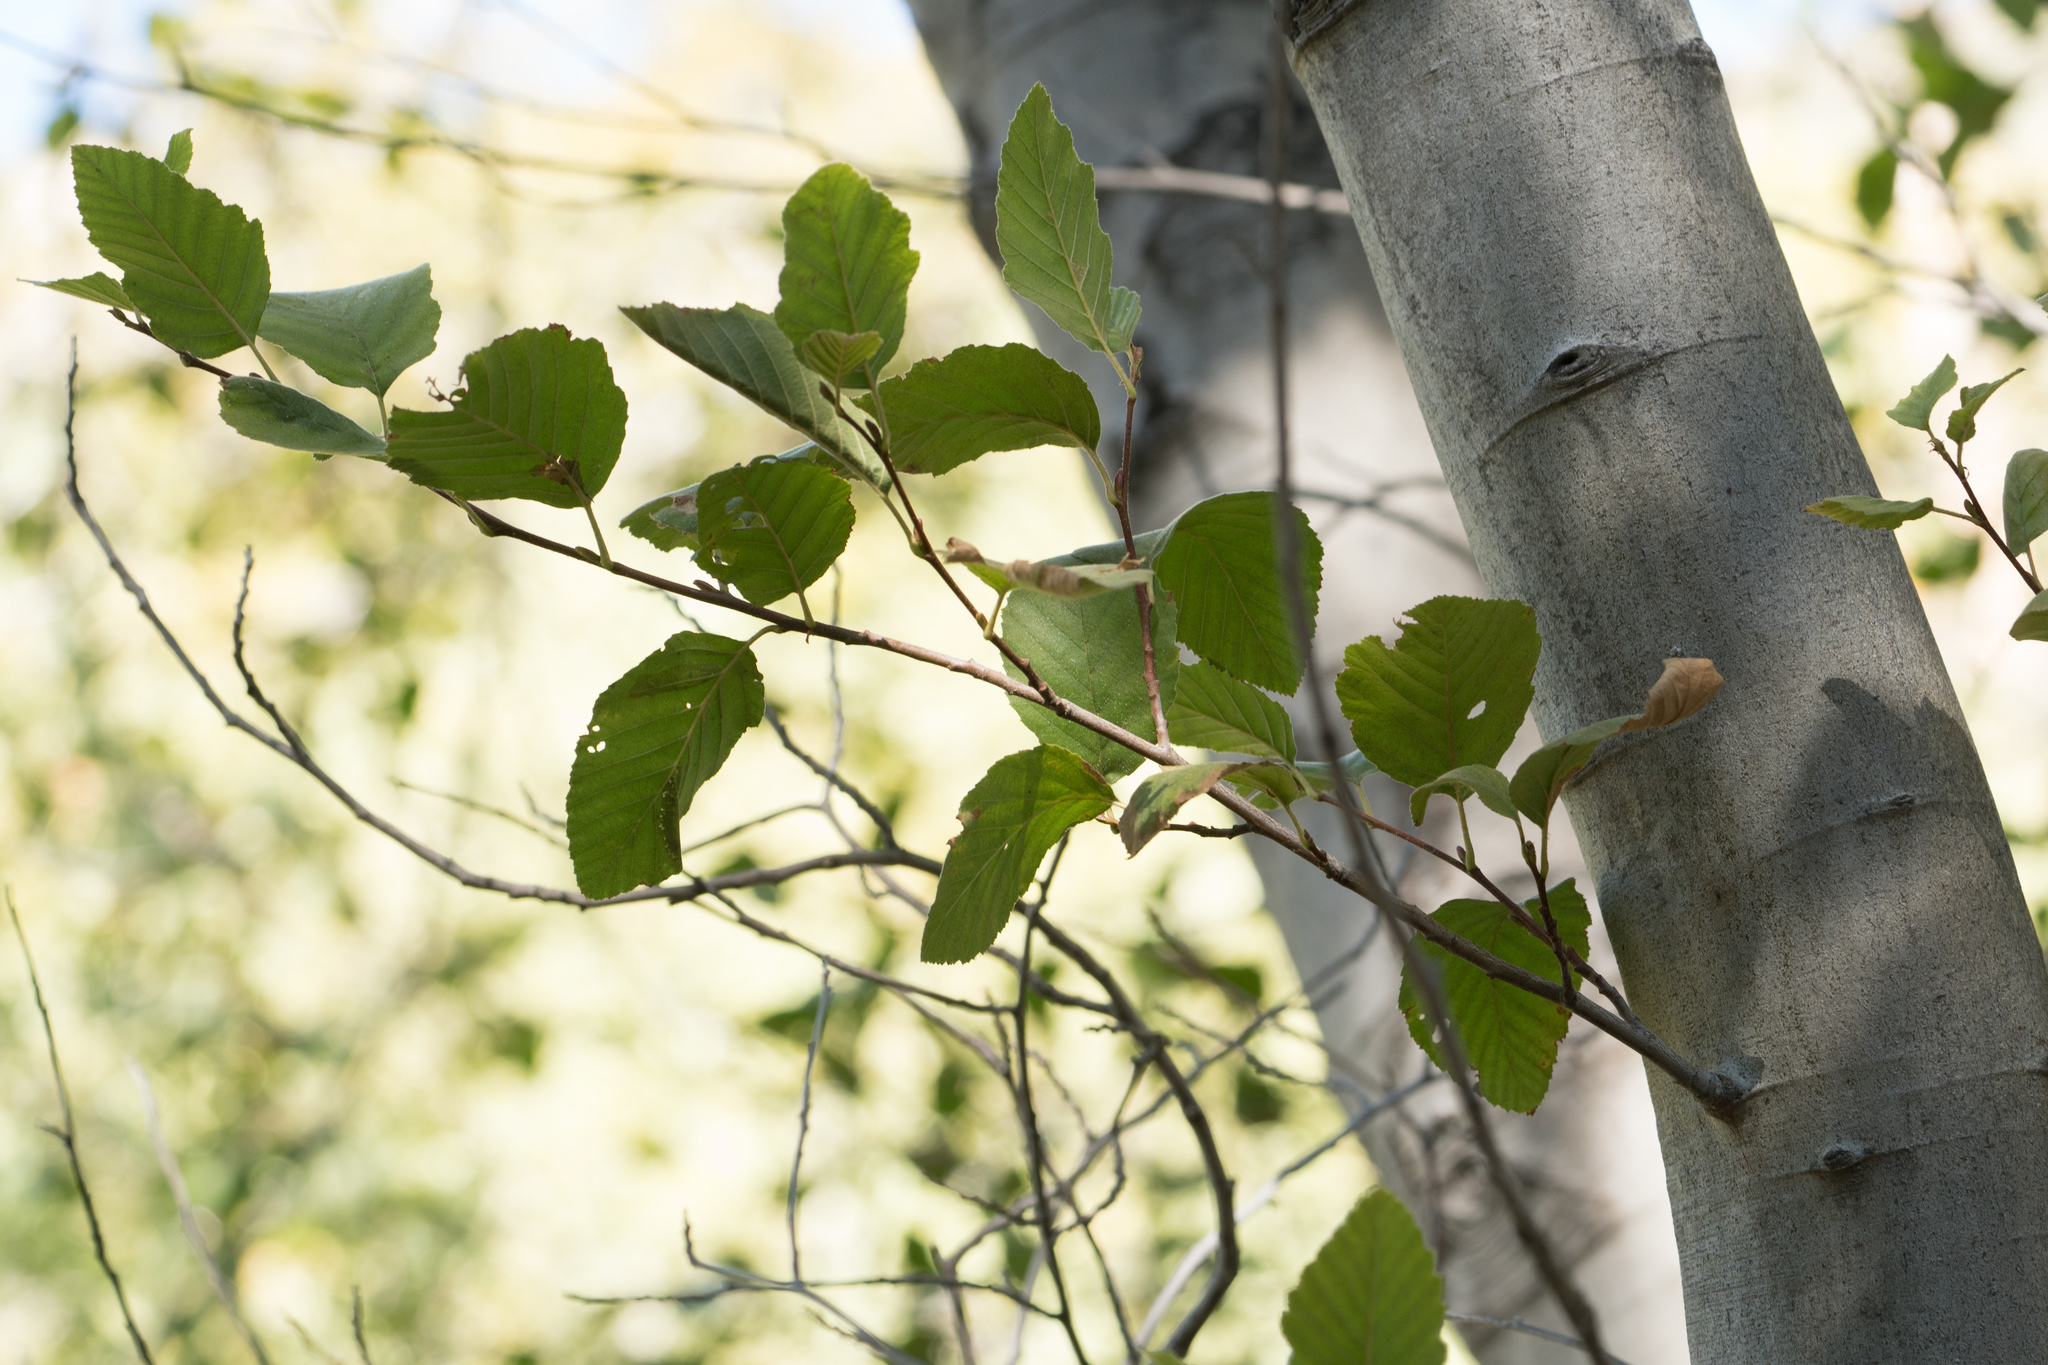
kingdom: Plantae
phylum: Tracheophyta
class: Magnoliopsida
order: Fagales
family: Betulaceae
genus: Alnus
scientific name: Alnus rhombifolia
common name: California alder
